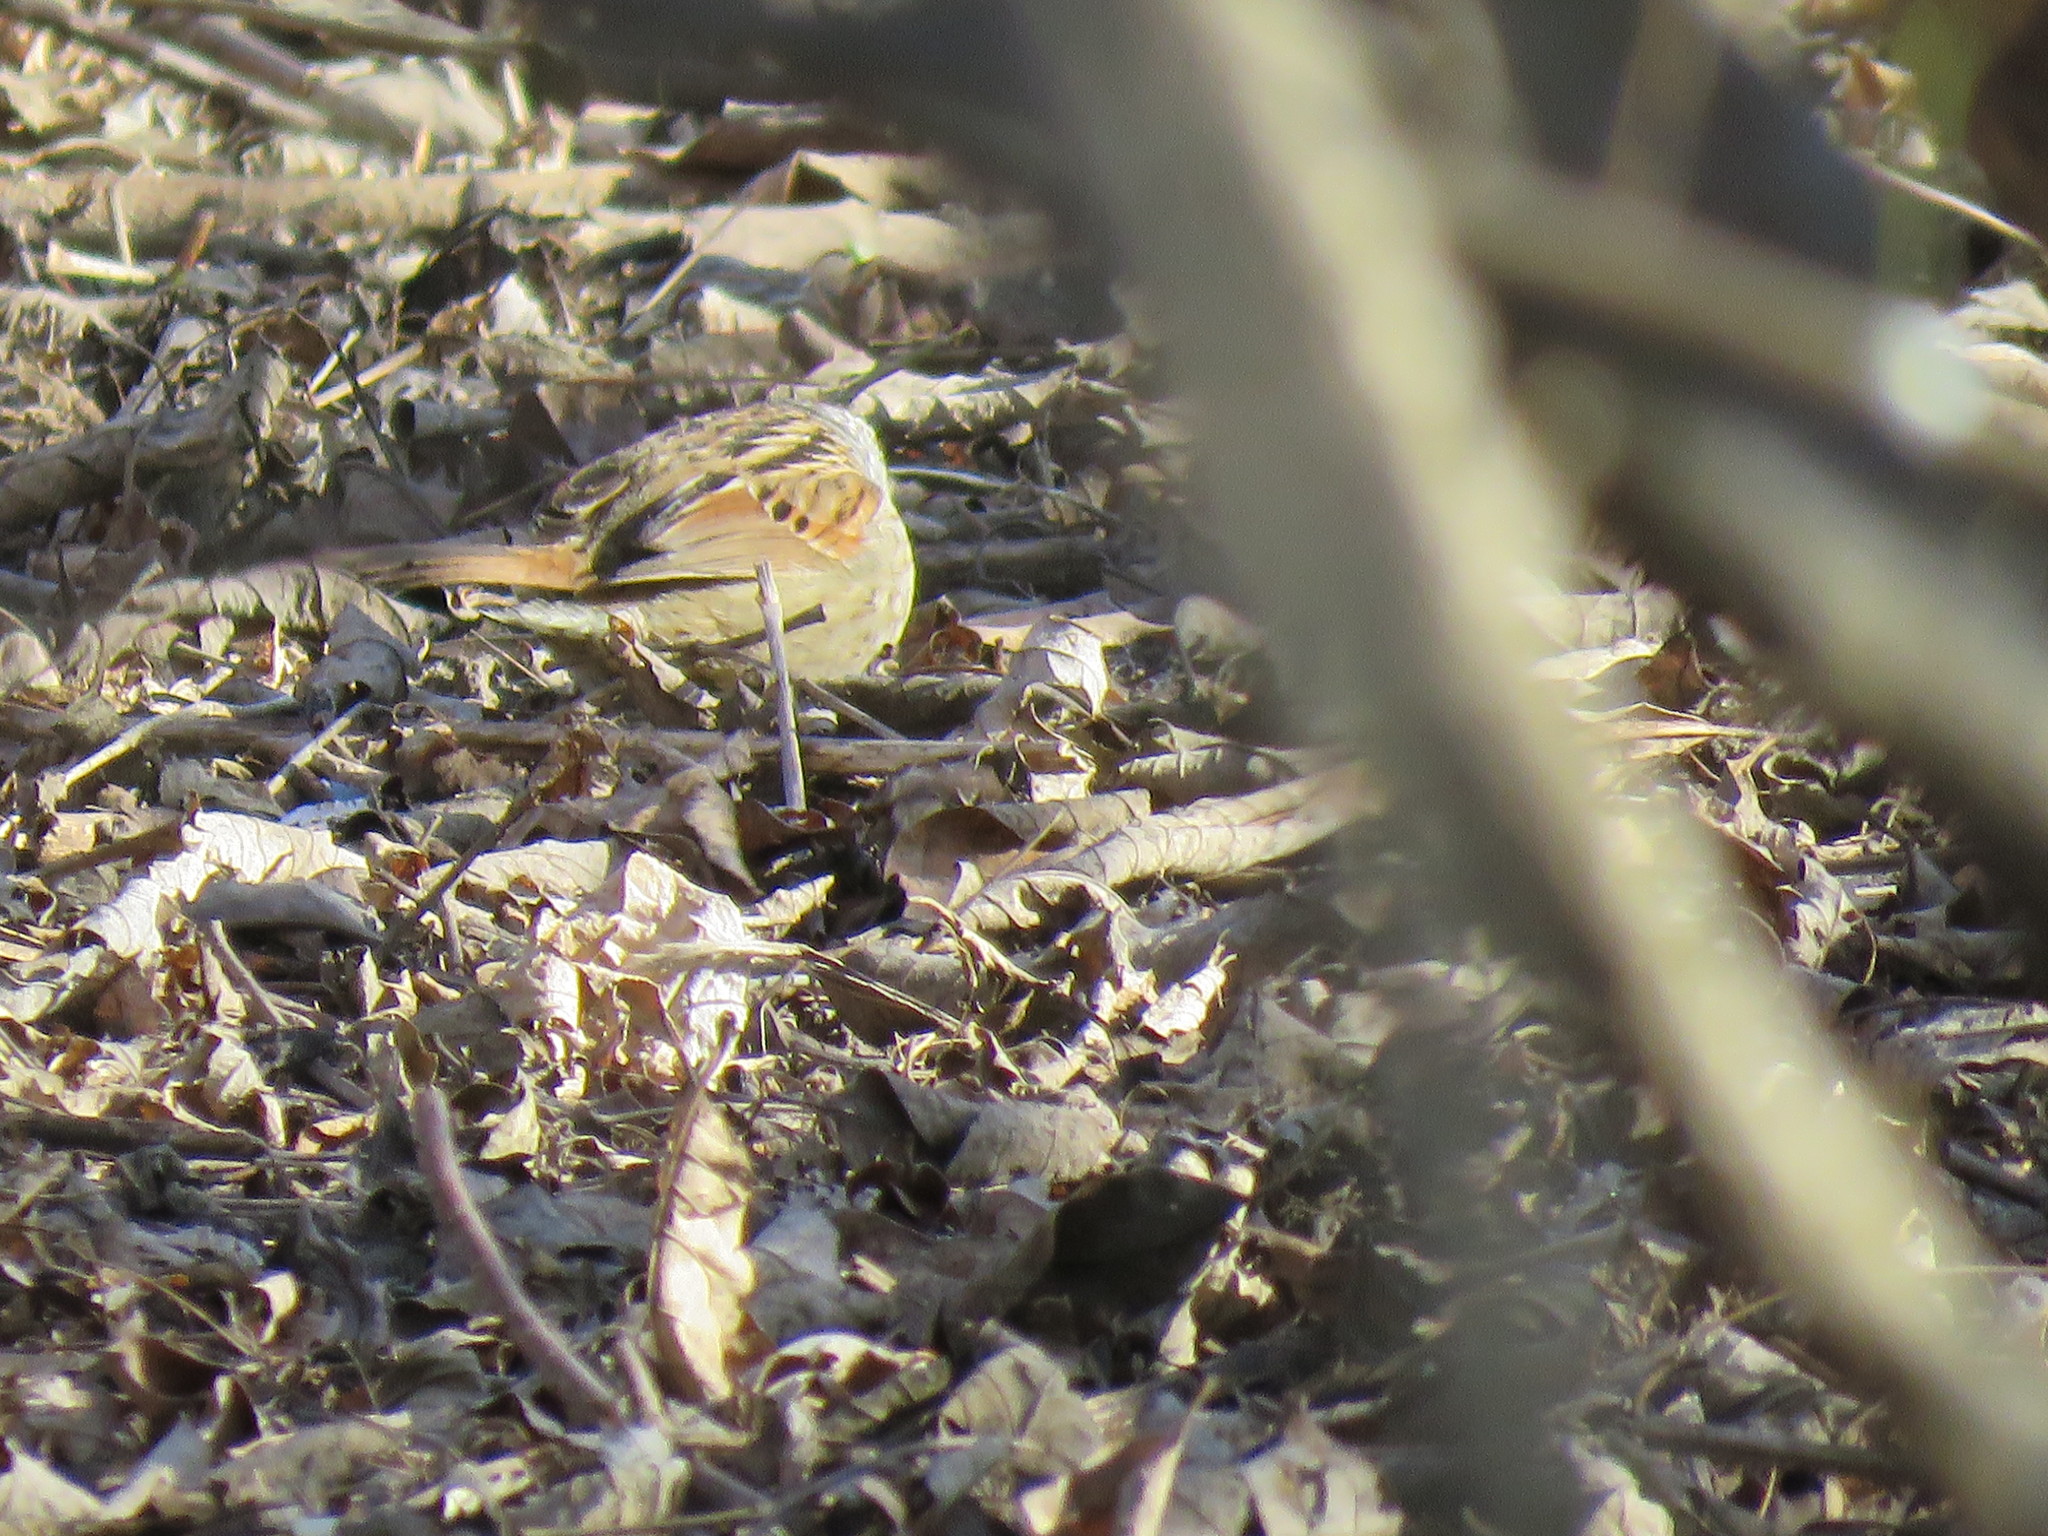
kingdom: Animalia
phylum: Chordata
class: Aves
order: Passeriformes
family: Passerellidae
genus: Melospiza
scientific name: Melospiza georgiana
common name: Swamp sparrow
